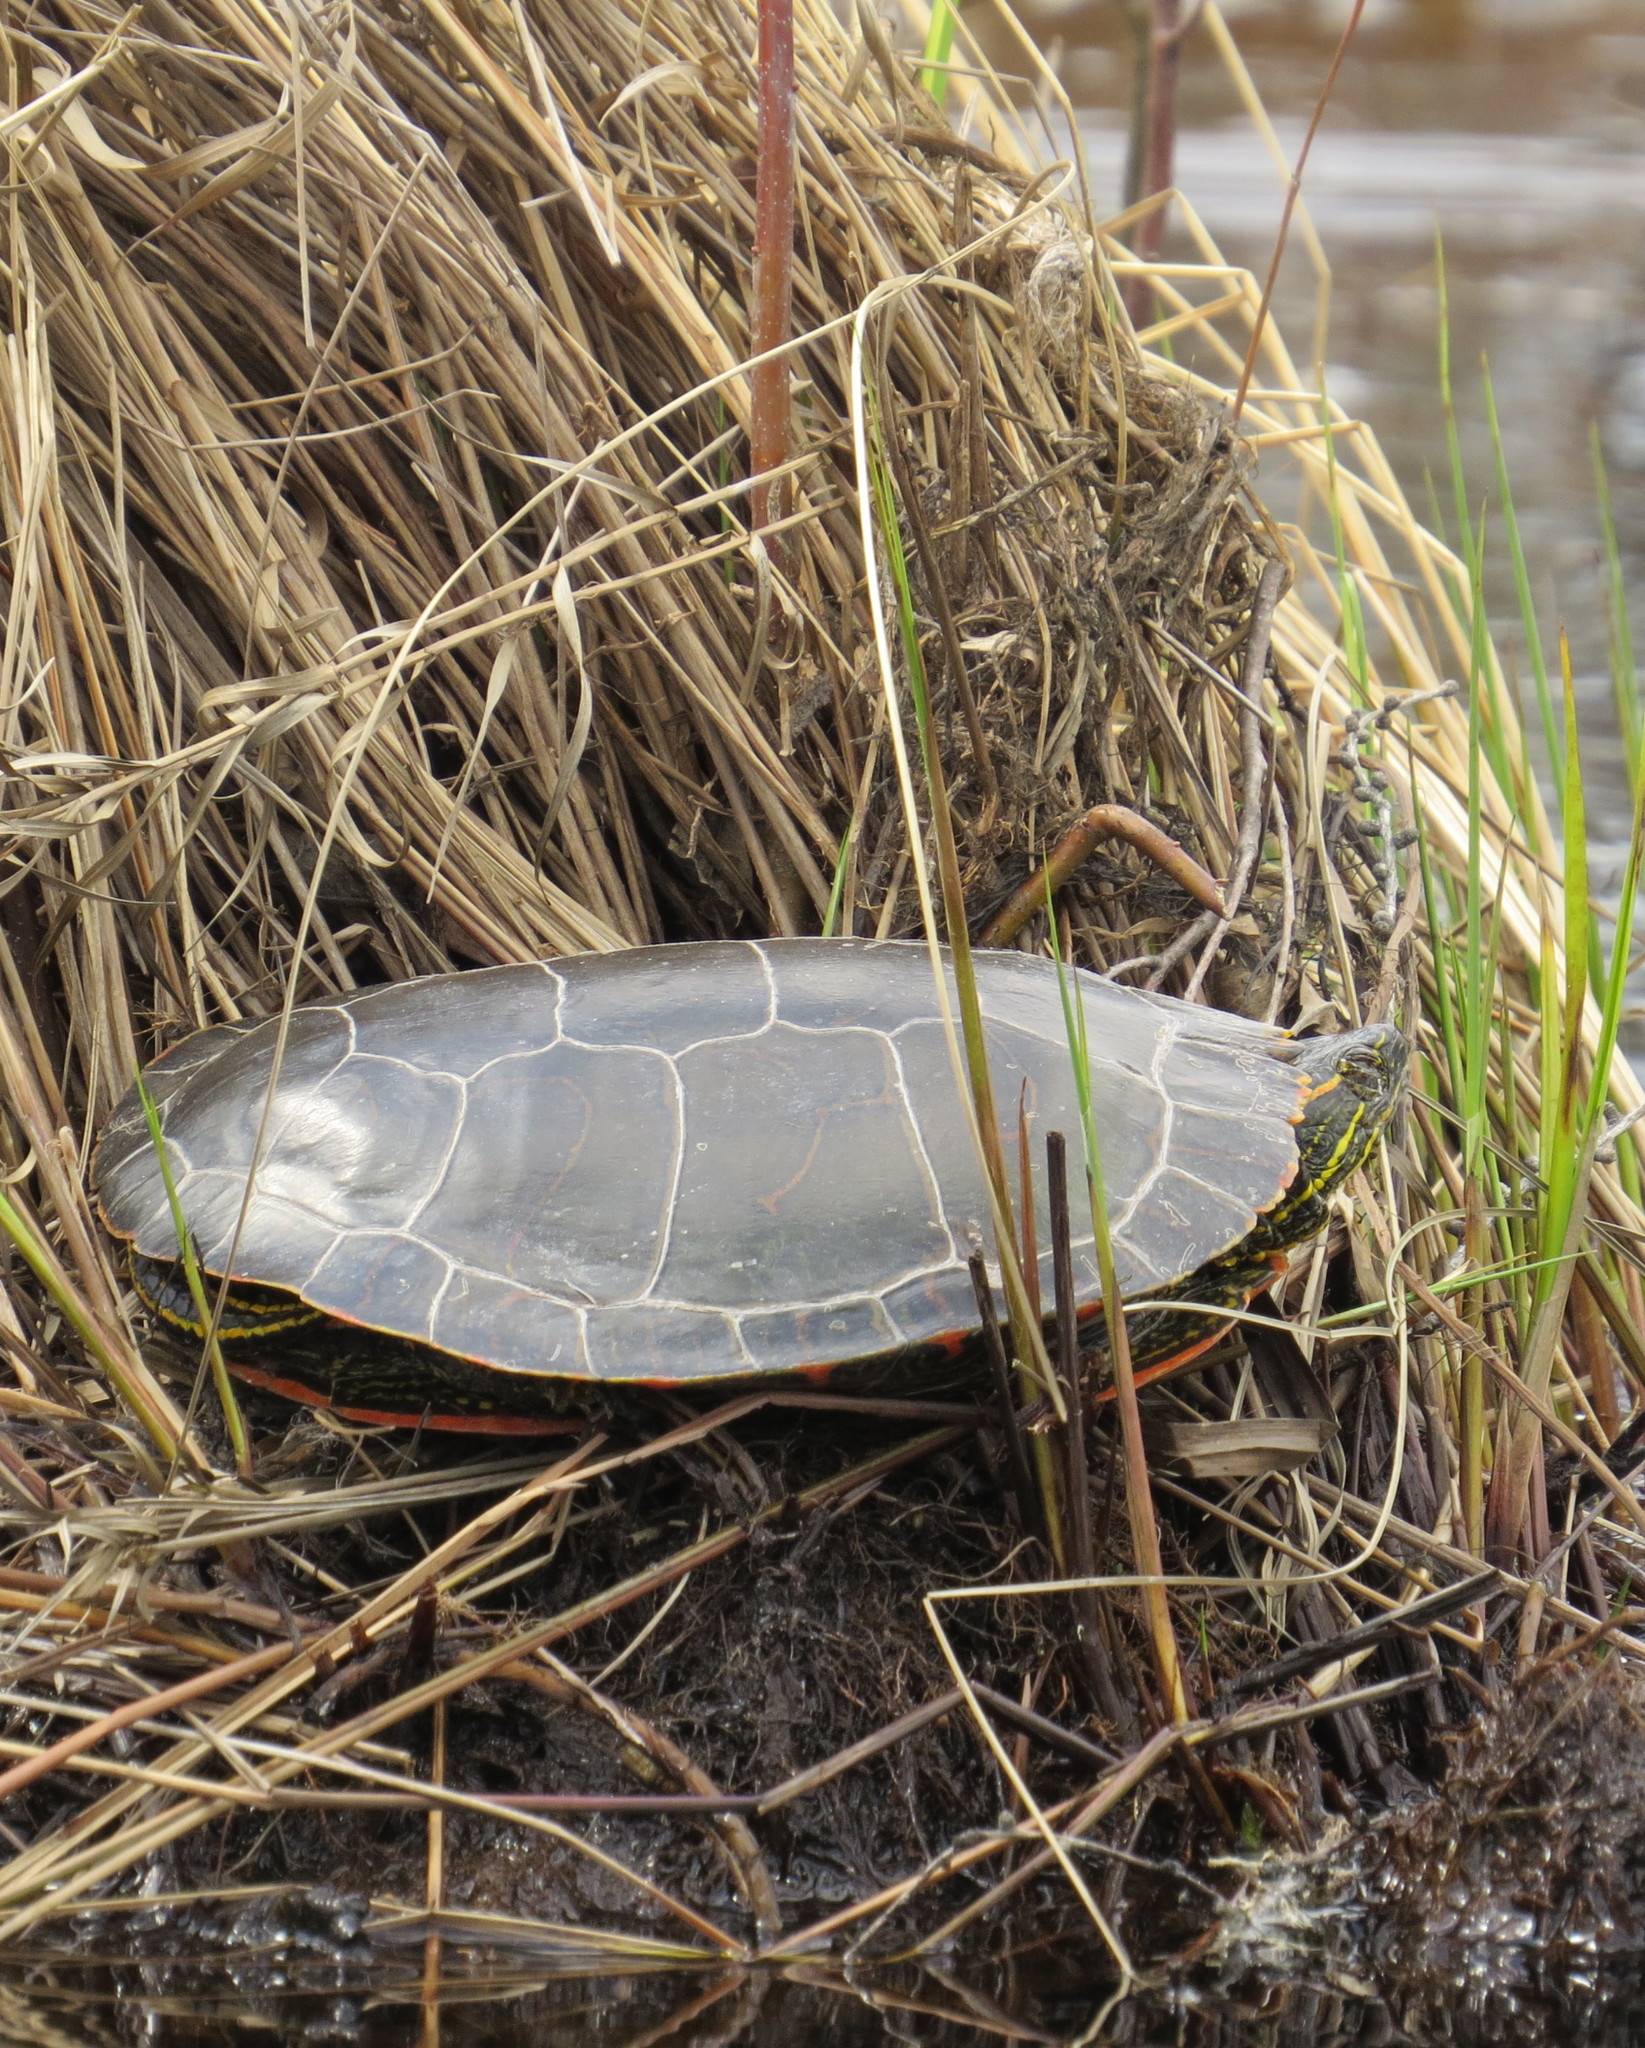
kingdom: Animalia
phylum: Chordata
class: Testudines
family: Emydidae
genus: Chrysemys
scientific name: Chrysemys picta
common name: Painted turtle
